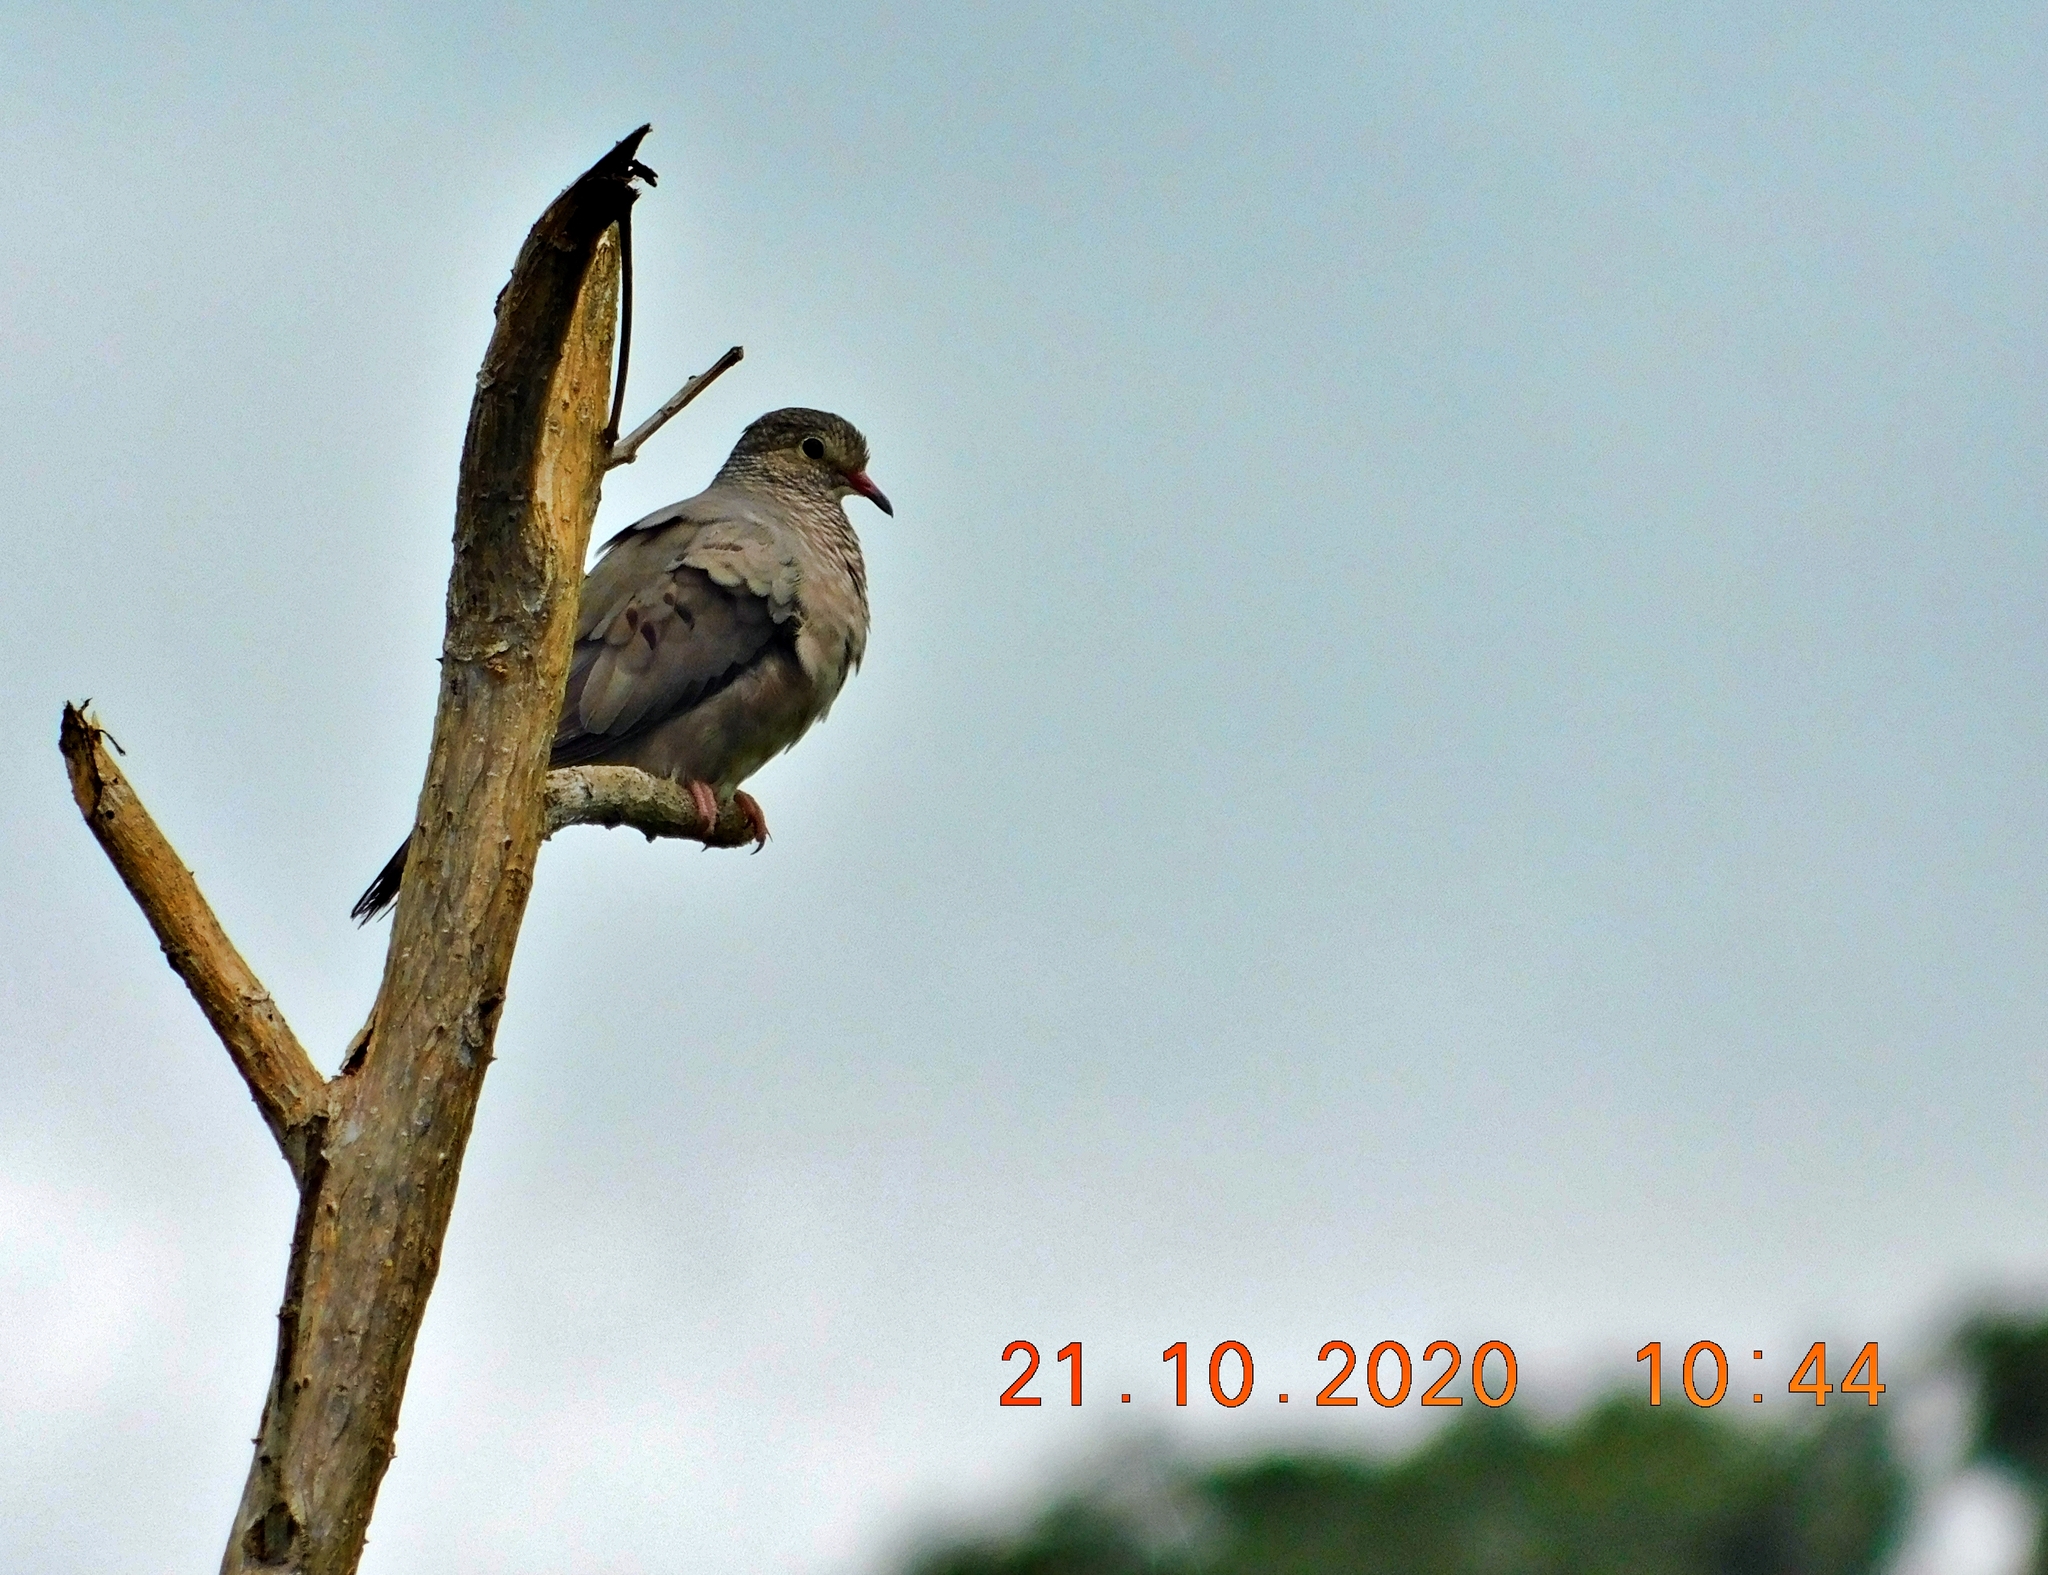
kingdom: Animalia
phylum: Chordata
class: Aves
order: Columbiformes
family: Columbidae
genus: Columbina
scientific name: Columbina passerina
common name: Common ground-dove
